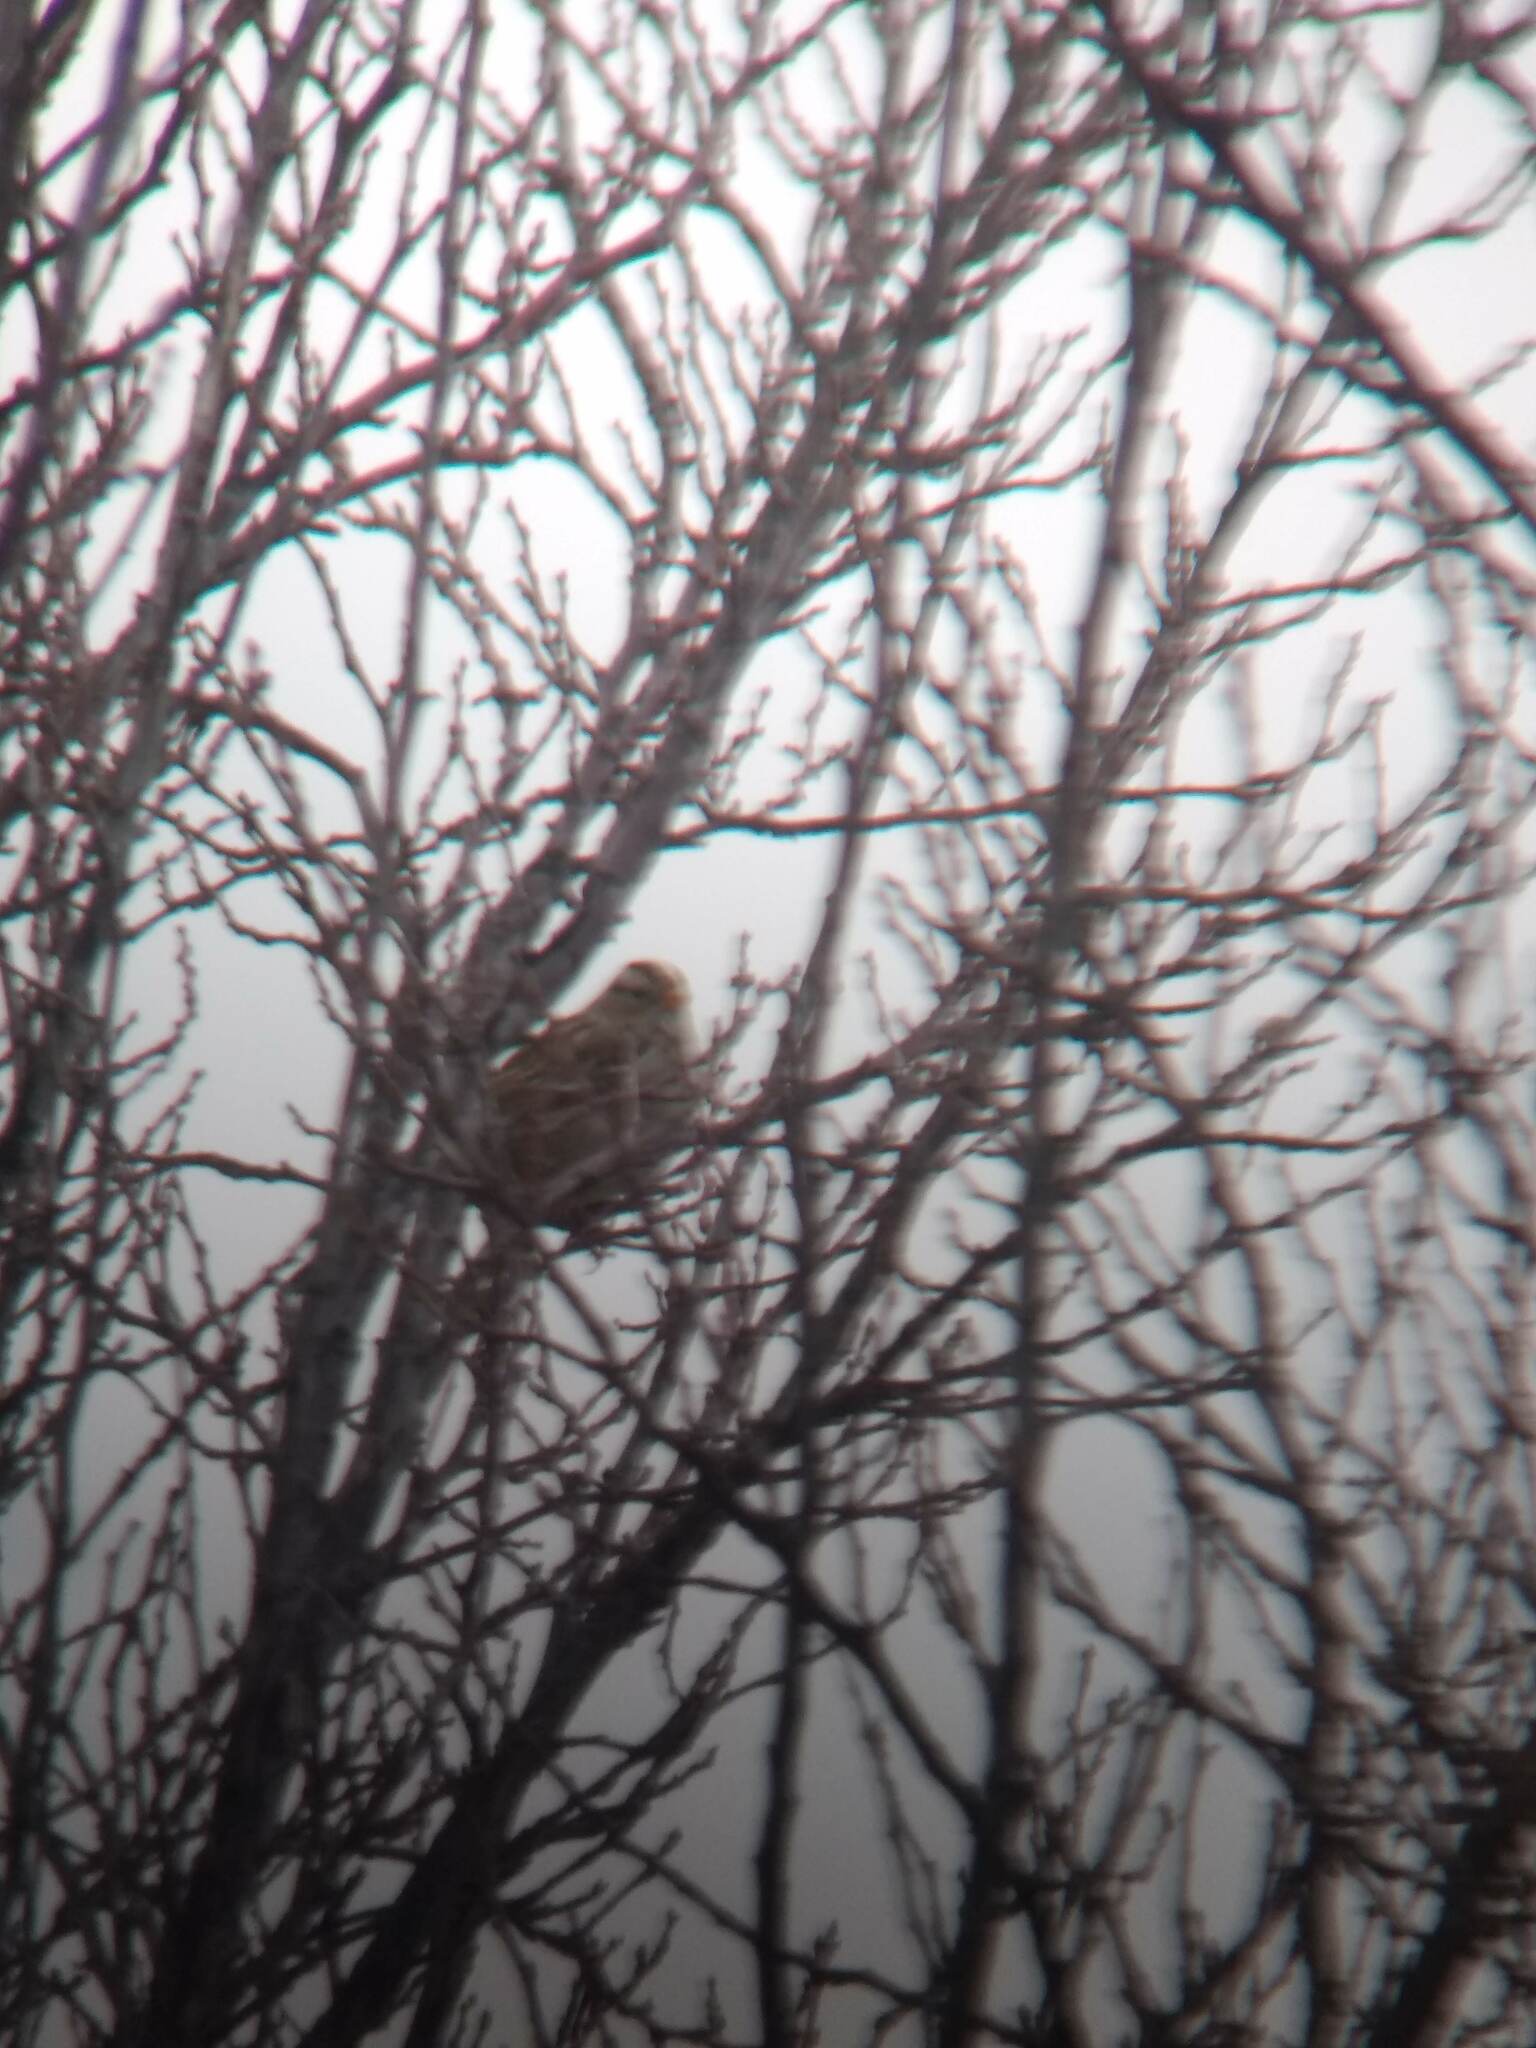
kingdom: Animalia
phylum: Chordata
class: Aves
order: Passeriformes
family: Passerellidae
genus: Zonotrichia
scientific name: Zonotrichia leucophrys
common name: White-crowned sparrow
